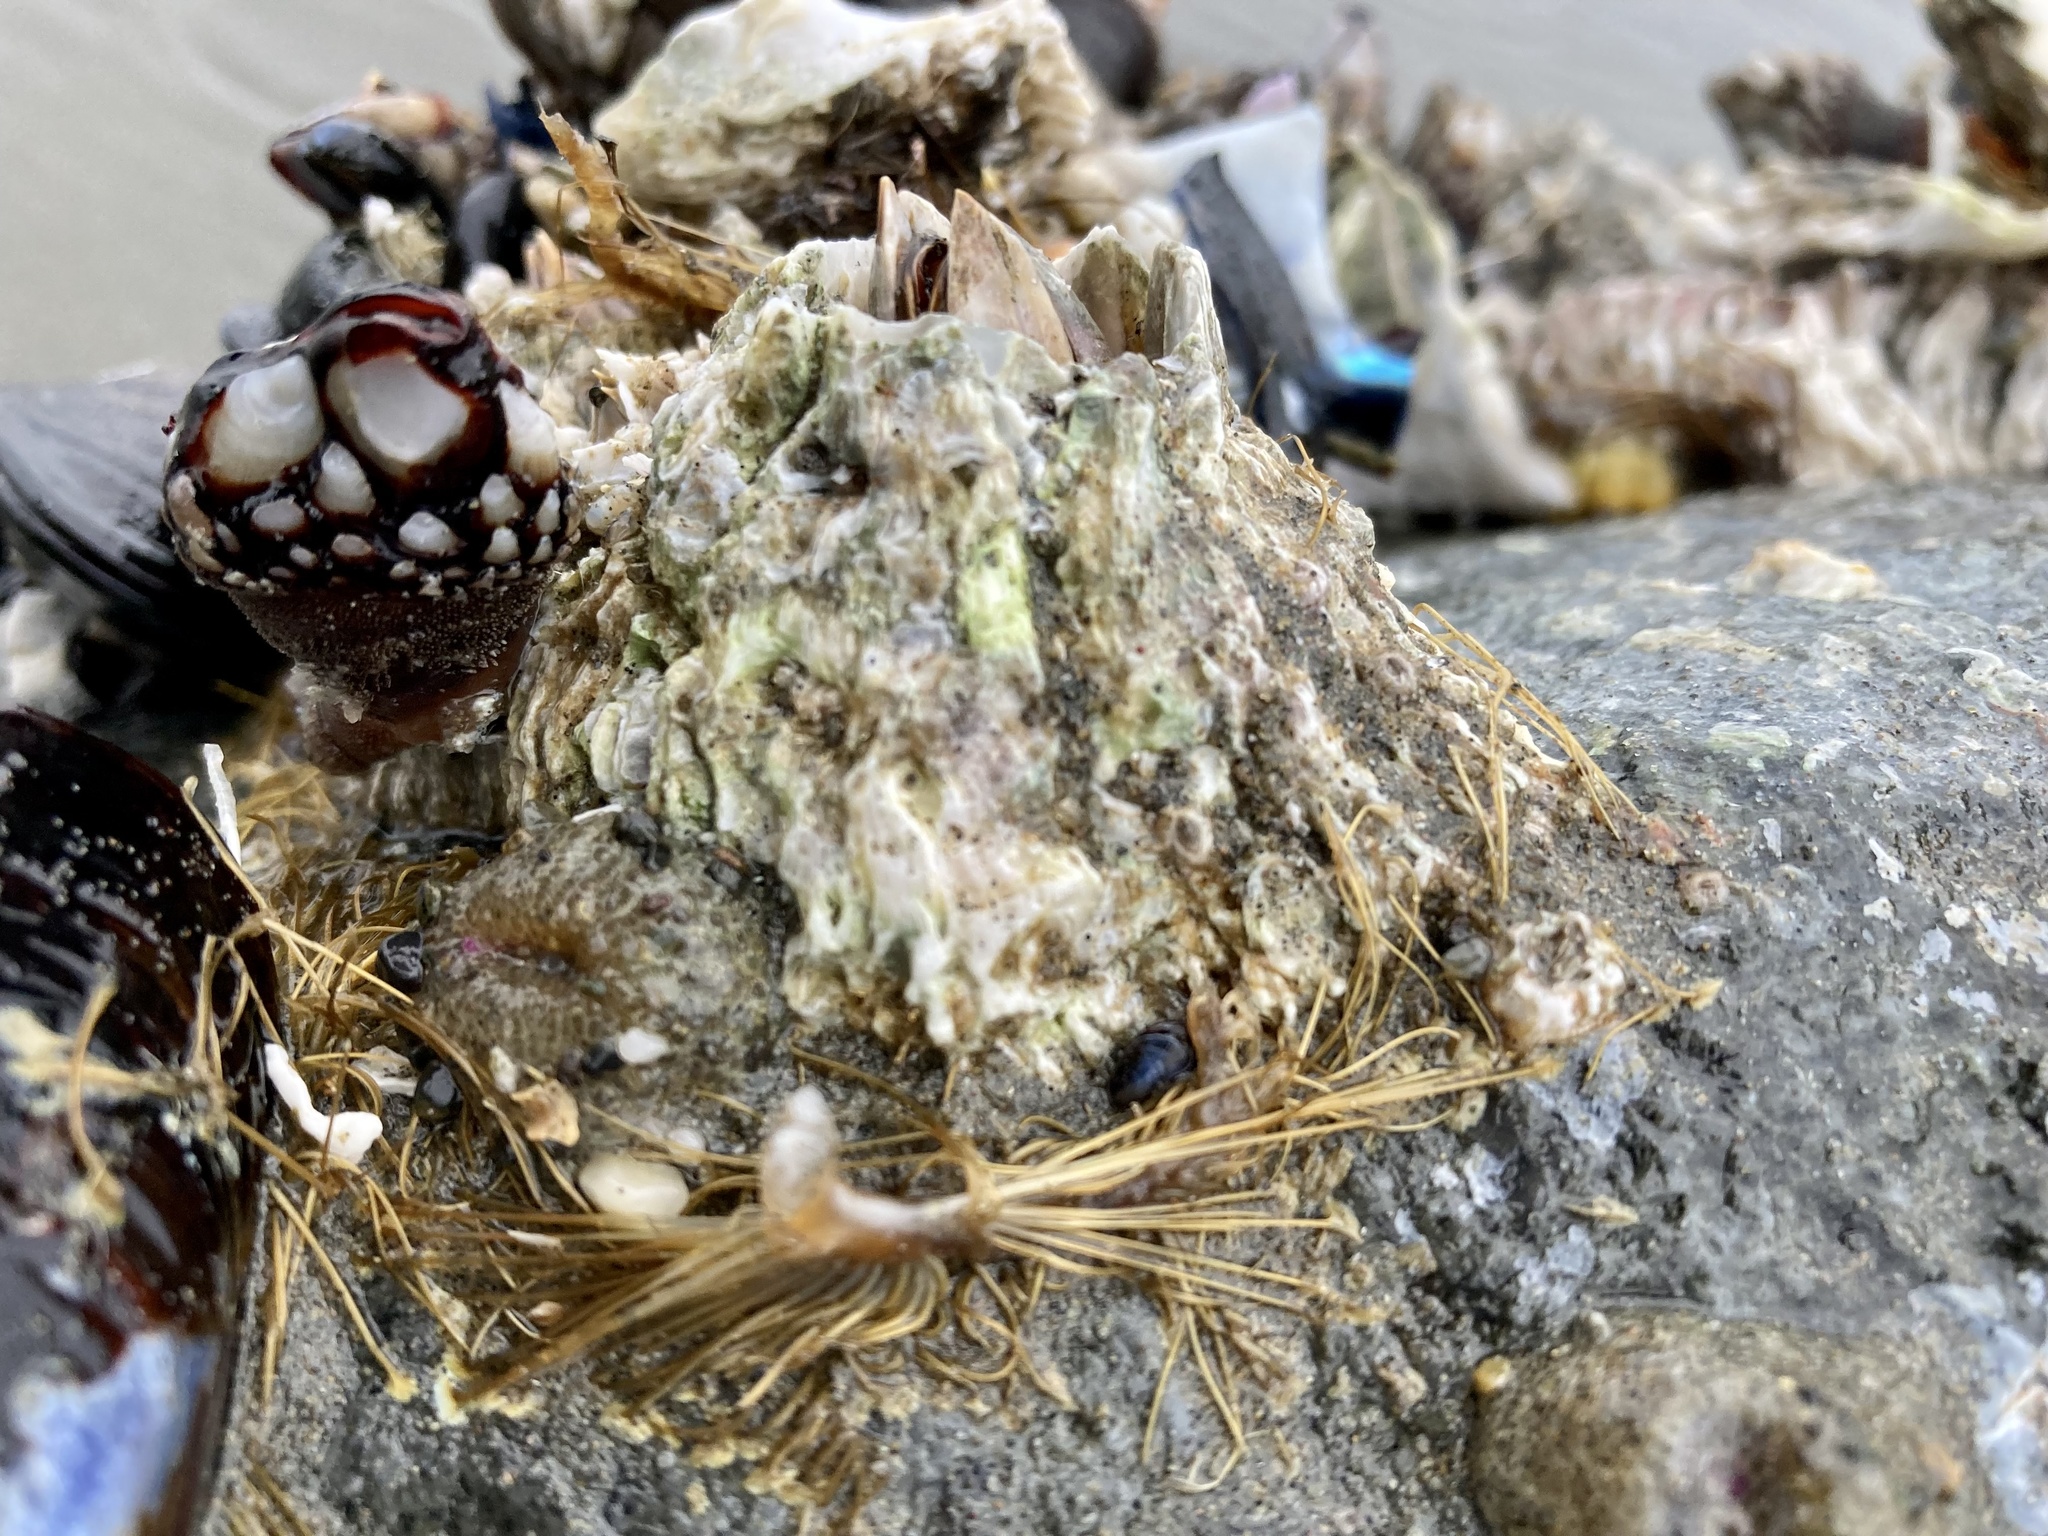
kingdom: Animalia
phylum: Arthropoda
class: Maxillopoda
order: Sessilia
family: Archaeobalanidae
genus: Semibalanus
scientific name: Semibalanus cariosus
